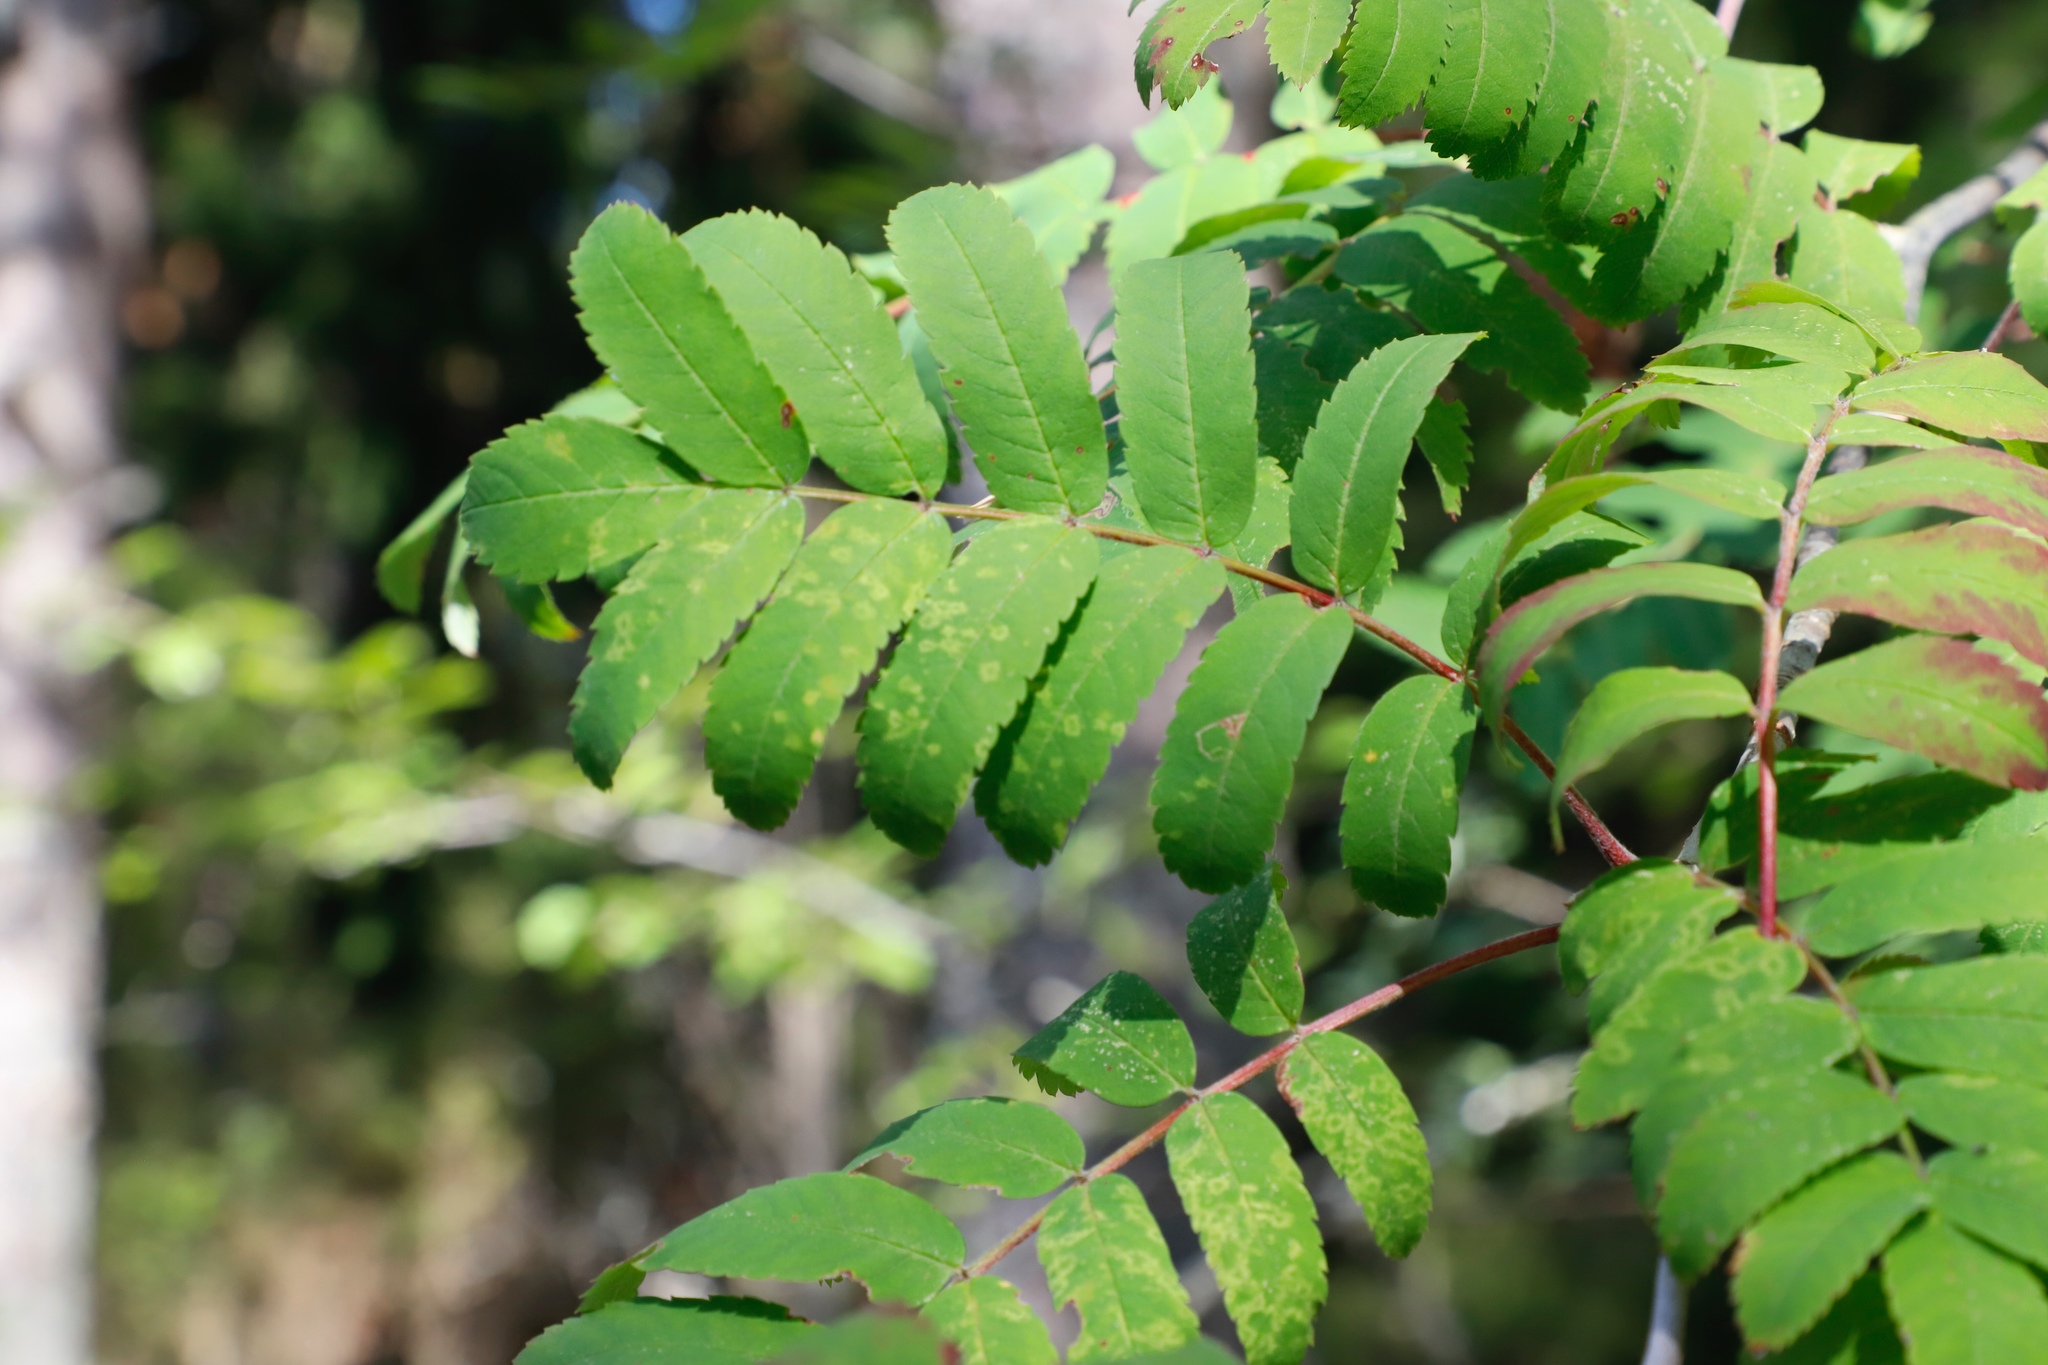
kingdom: Plantae
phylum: Tracheophyta
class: Magnoliopsida
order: Rosales
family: Rosaceae
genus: Sorbus
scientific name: Sorbus aucuparia
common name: Rowan
